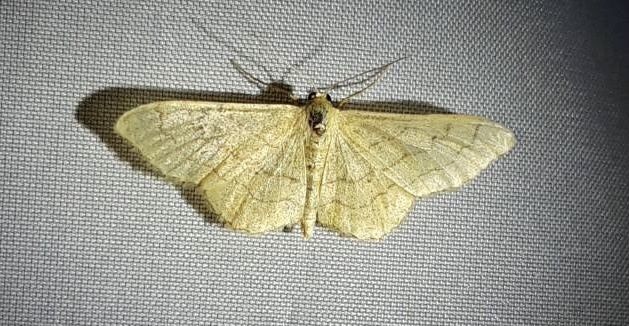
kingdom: Animalia
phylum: Arthropoda
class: Insecta
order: Lepidoptera
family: Geometridae
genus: Idaea
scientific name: Idaea aversata
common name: Riband wave
